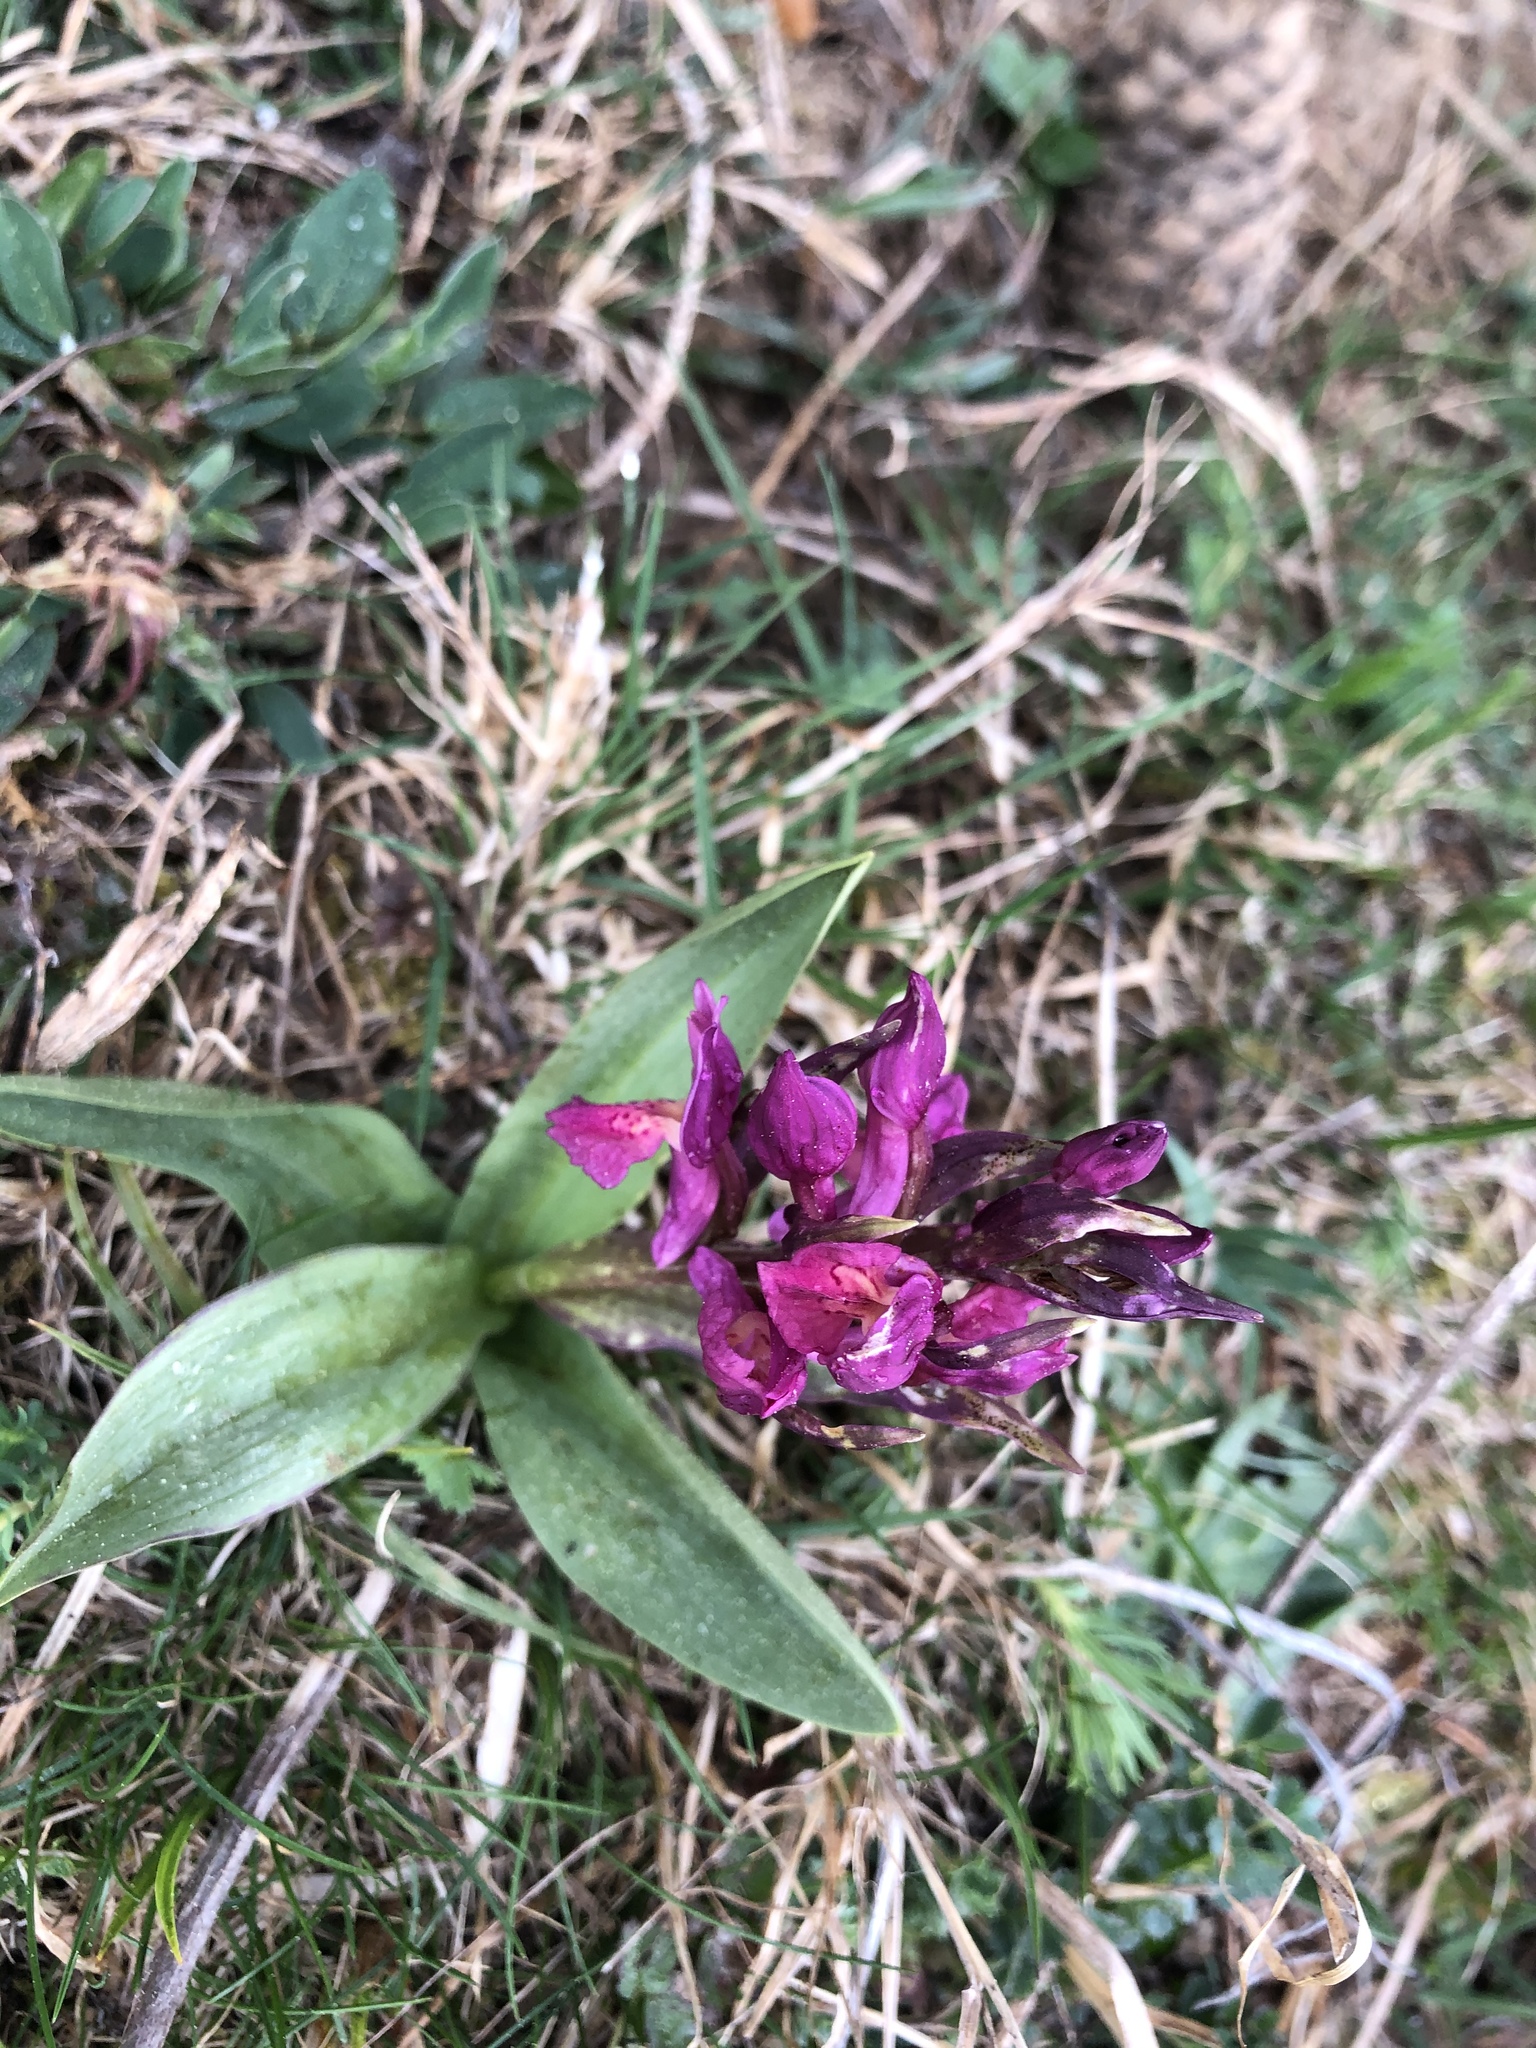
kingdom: Plantae
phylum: Tracheophyta
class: Liliopsida
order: Asparagales
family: Orchidaceae
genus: Dactylorhiza
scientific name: Dactylorhiza sambucina
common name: Elder-flowered orchid
